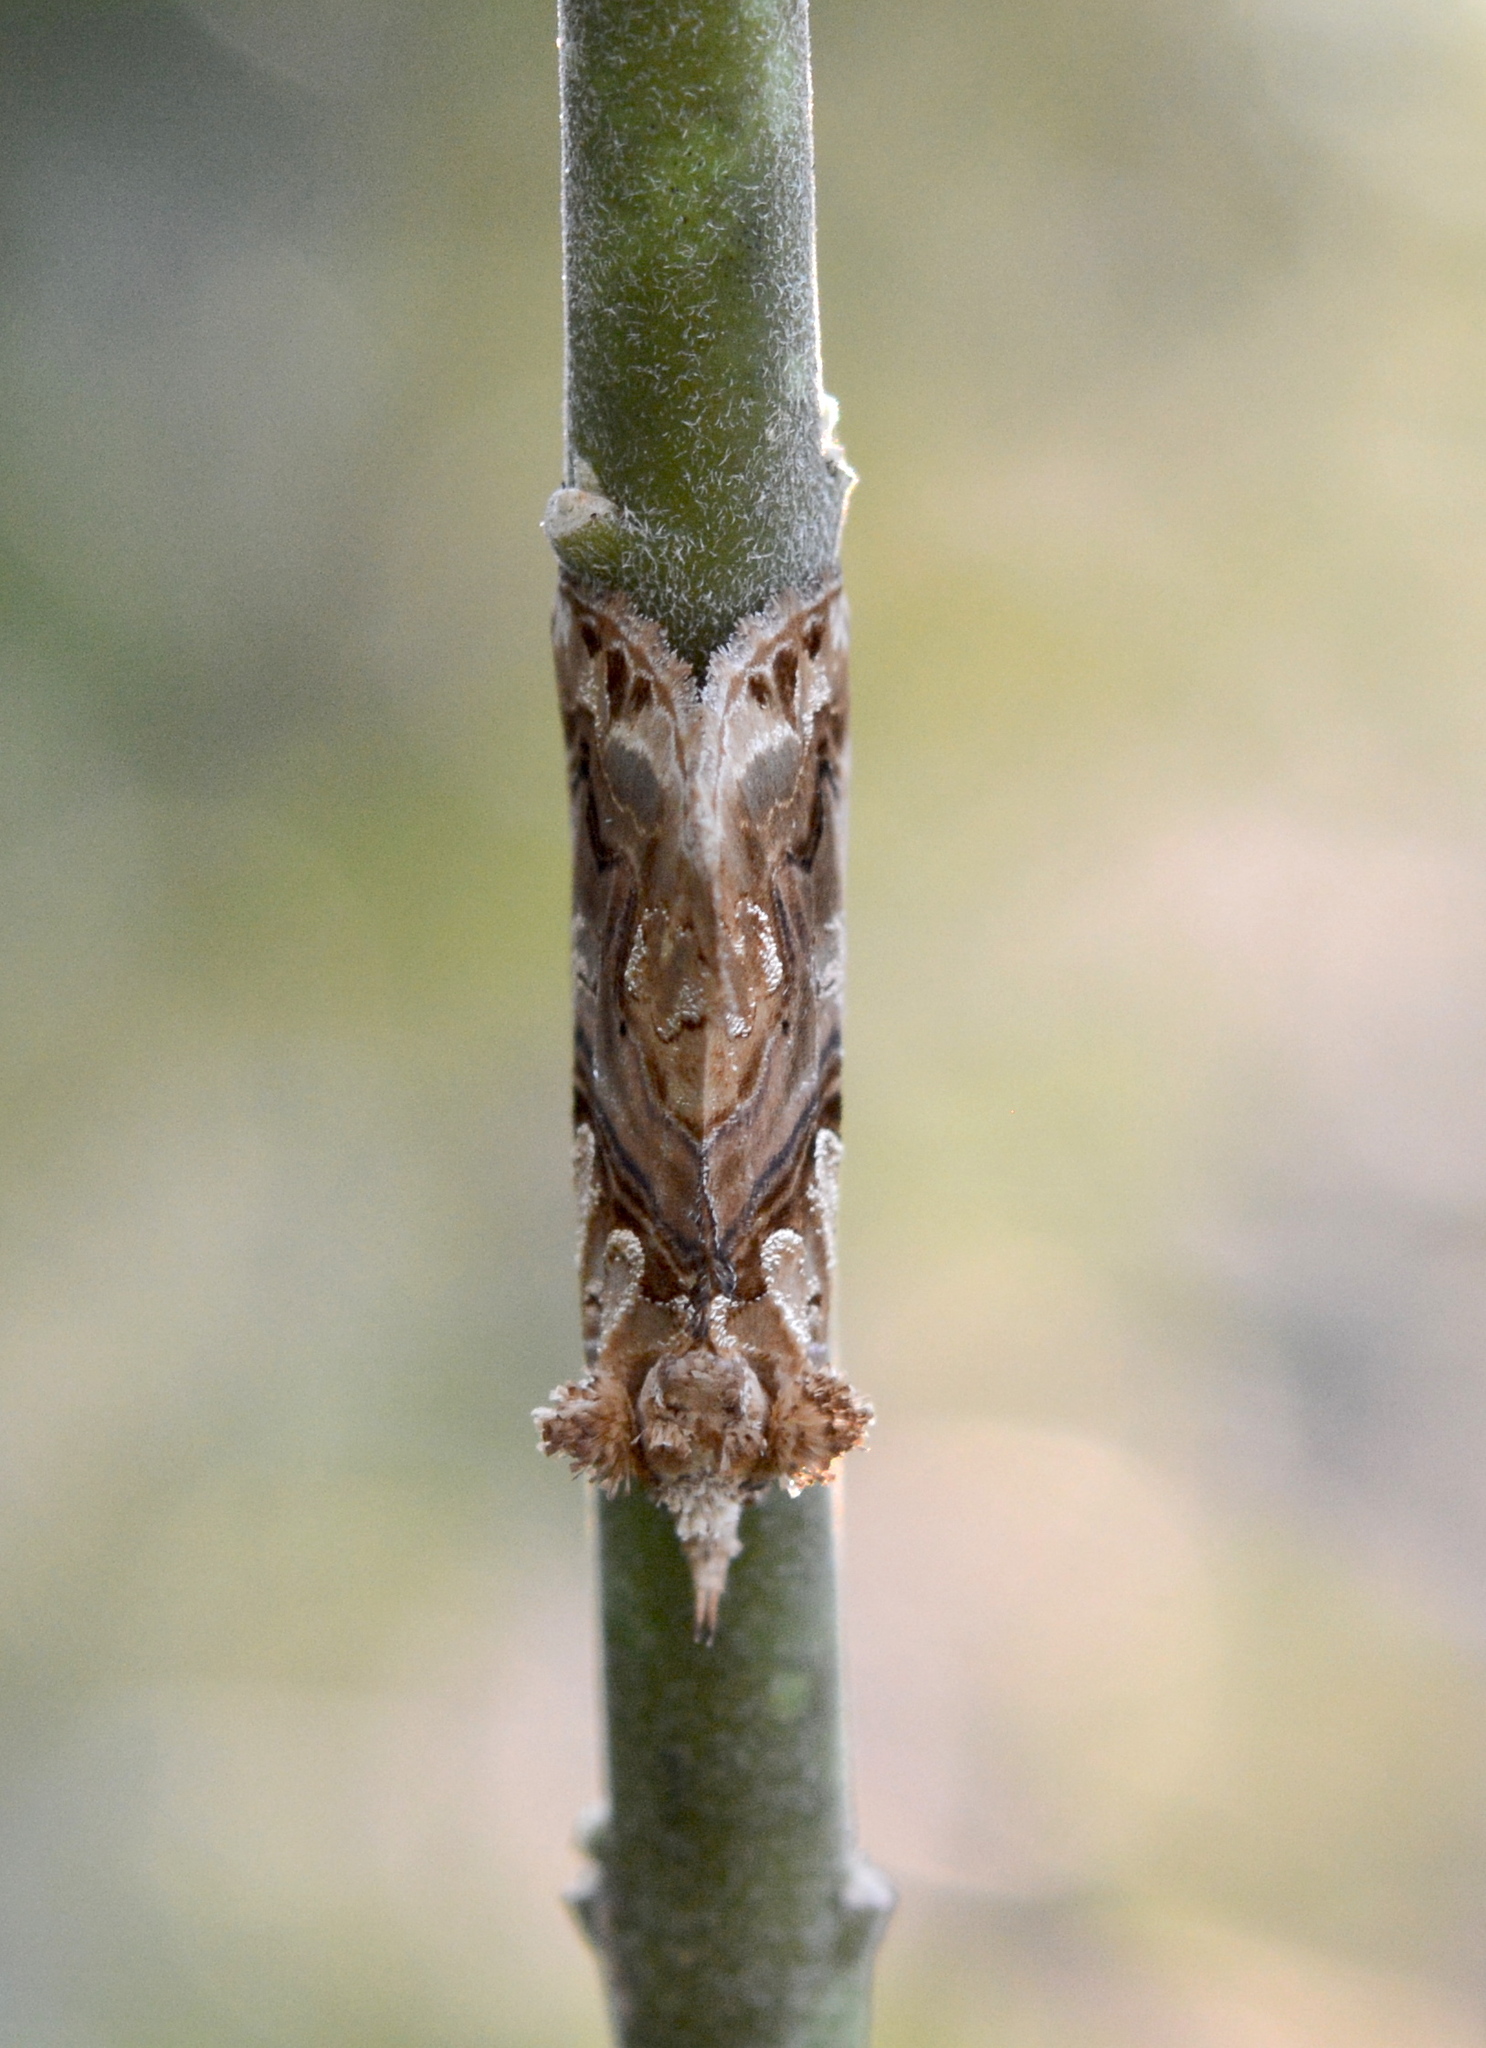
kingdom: Animalia
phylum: Arthropoda
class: Insecta
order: Lepidoptera
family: Erebidae
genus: Plusiodonta
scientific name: Plusiodonta compressipalpis
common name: Moonseed moth
